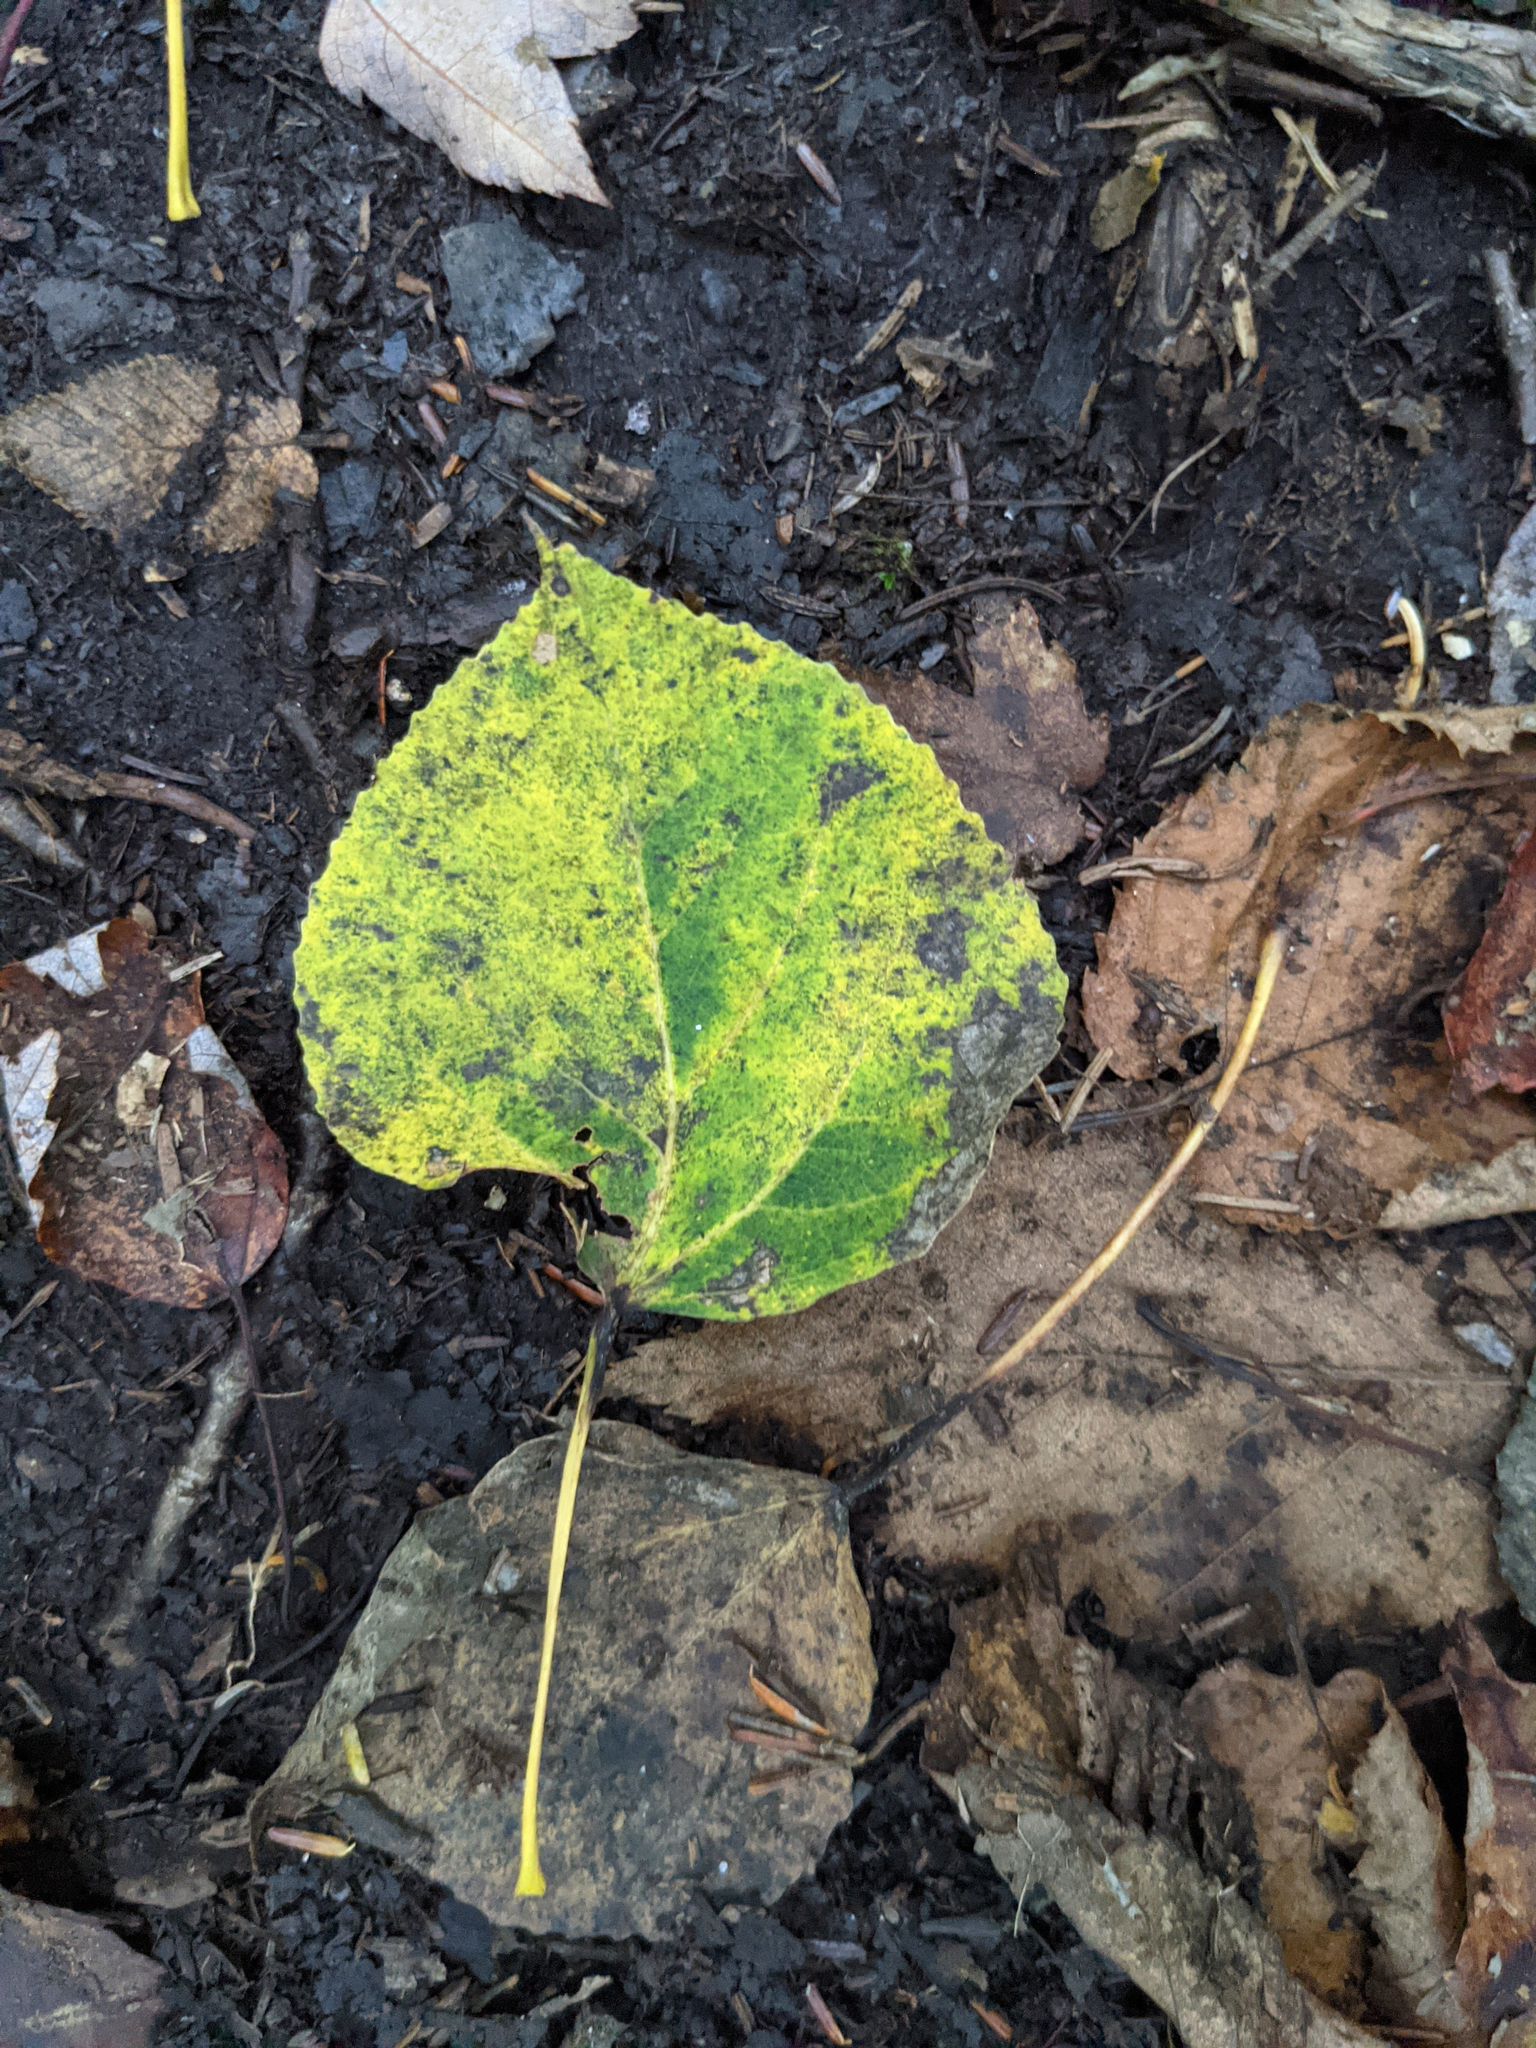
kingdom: Plantae
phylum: Tracheophyta
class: Magnoliopsida
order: Malpighiales
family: Salicaceae
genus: Populus
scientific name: Populus tremuloides
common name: Quaking aspen
